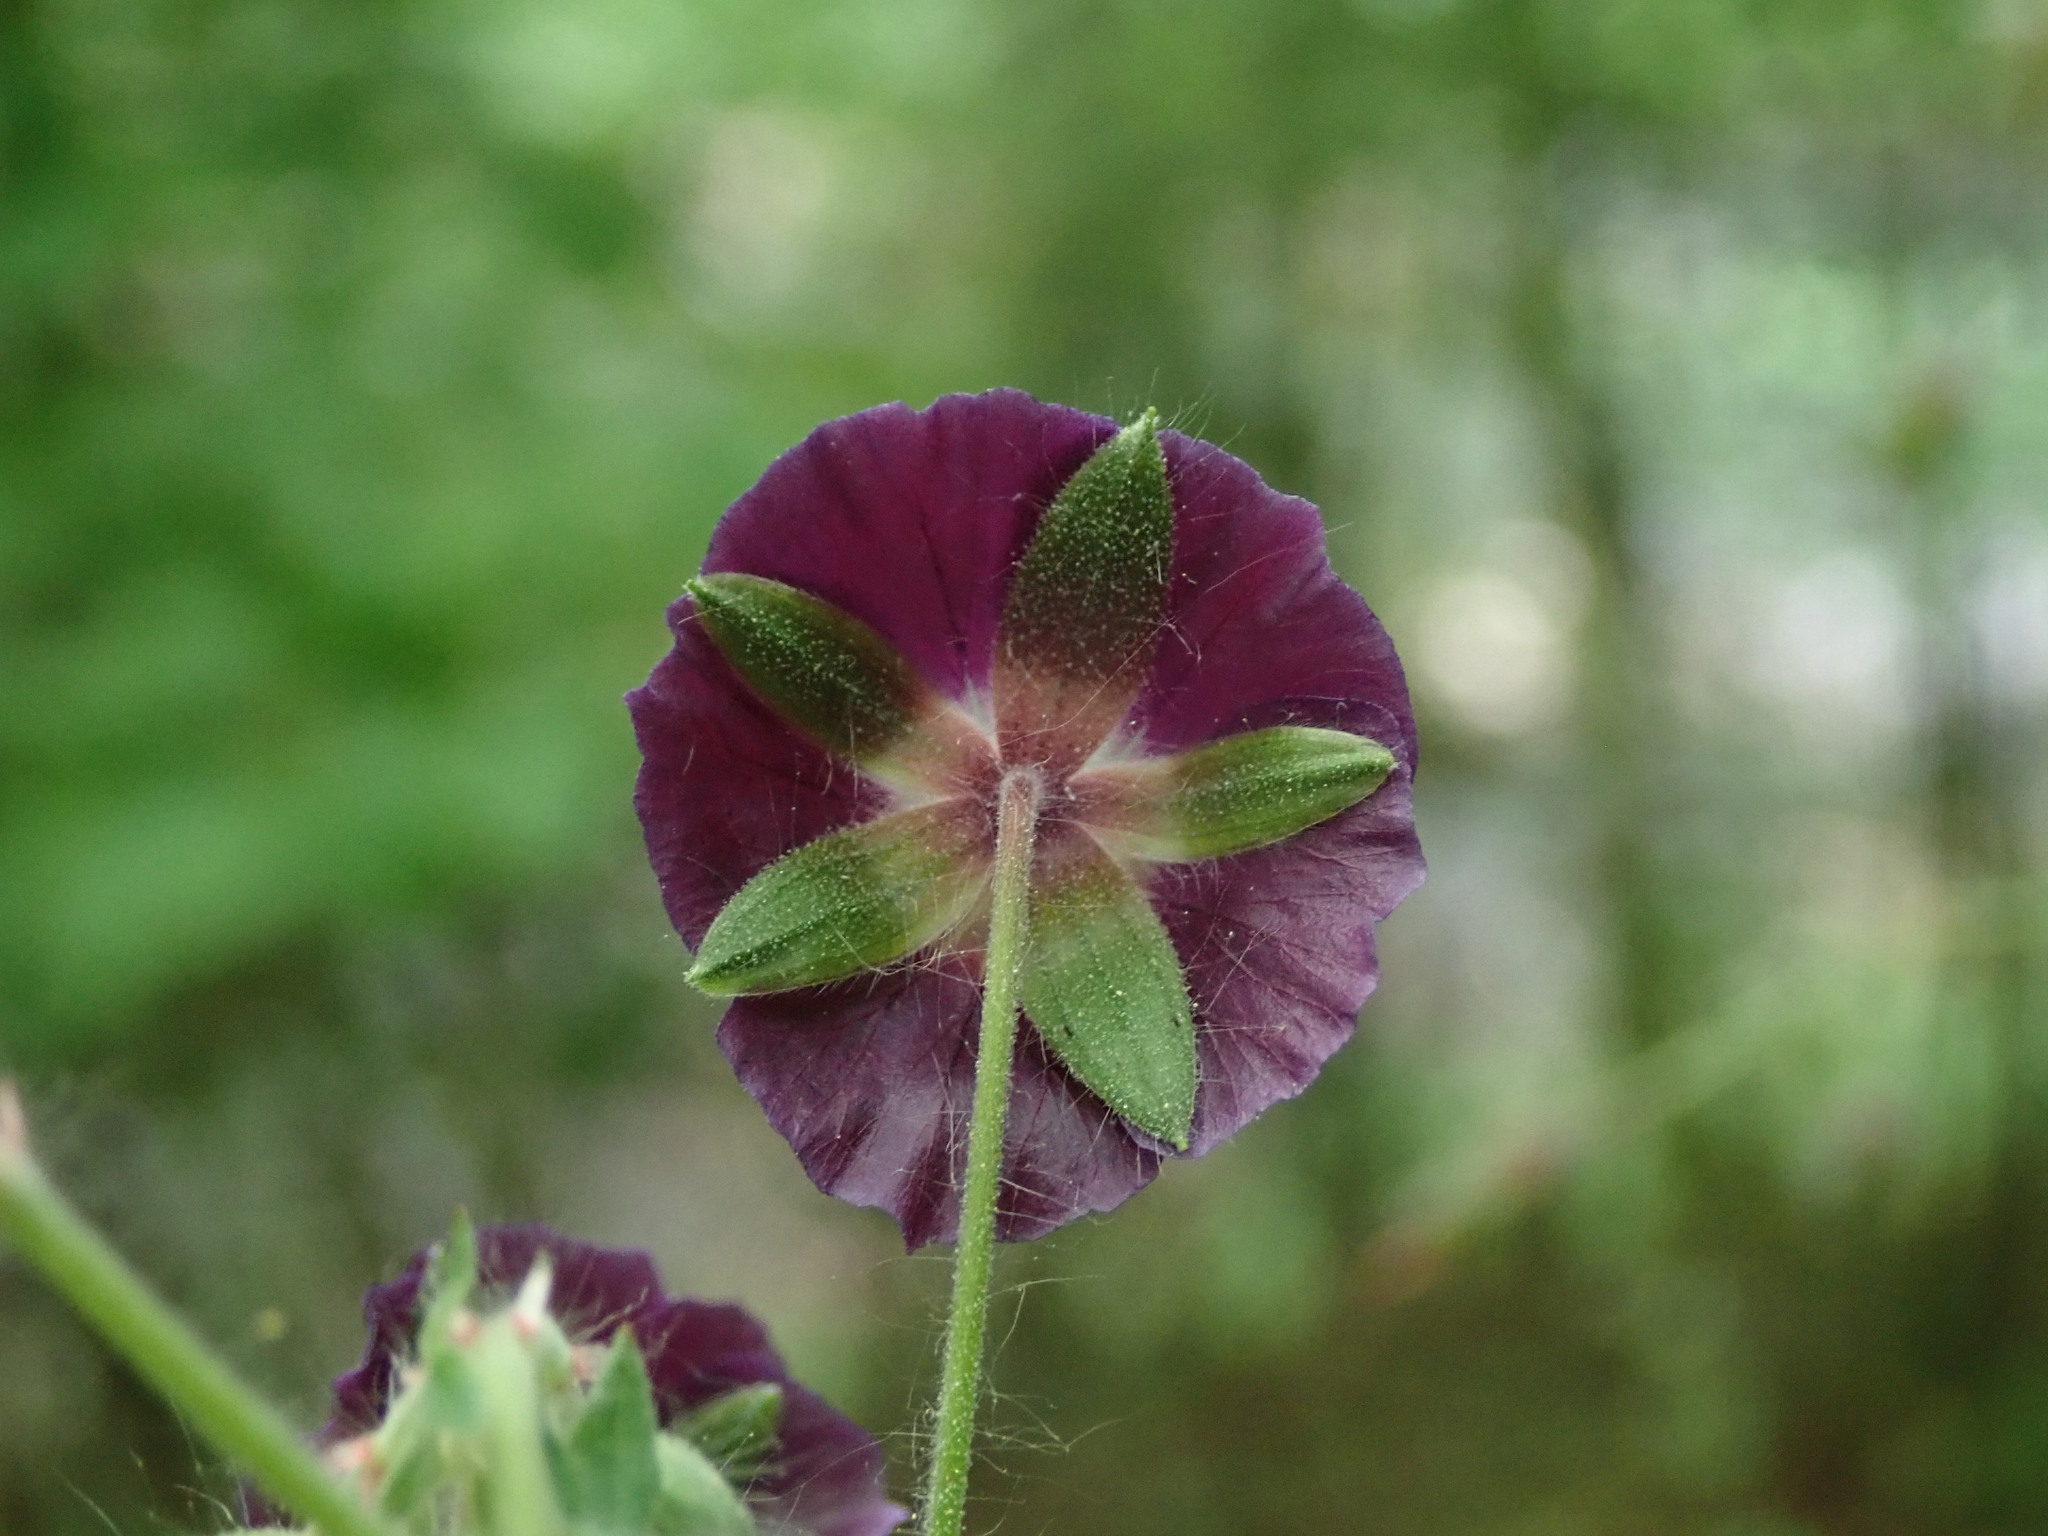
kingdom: Plantae
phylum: Tracheophyta
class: Magnoliopsida
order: Geraniales
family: Geraniaceae
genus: Geranium
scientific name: Geranium phaeum
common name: Dusky crane's-bill
